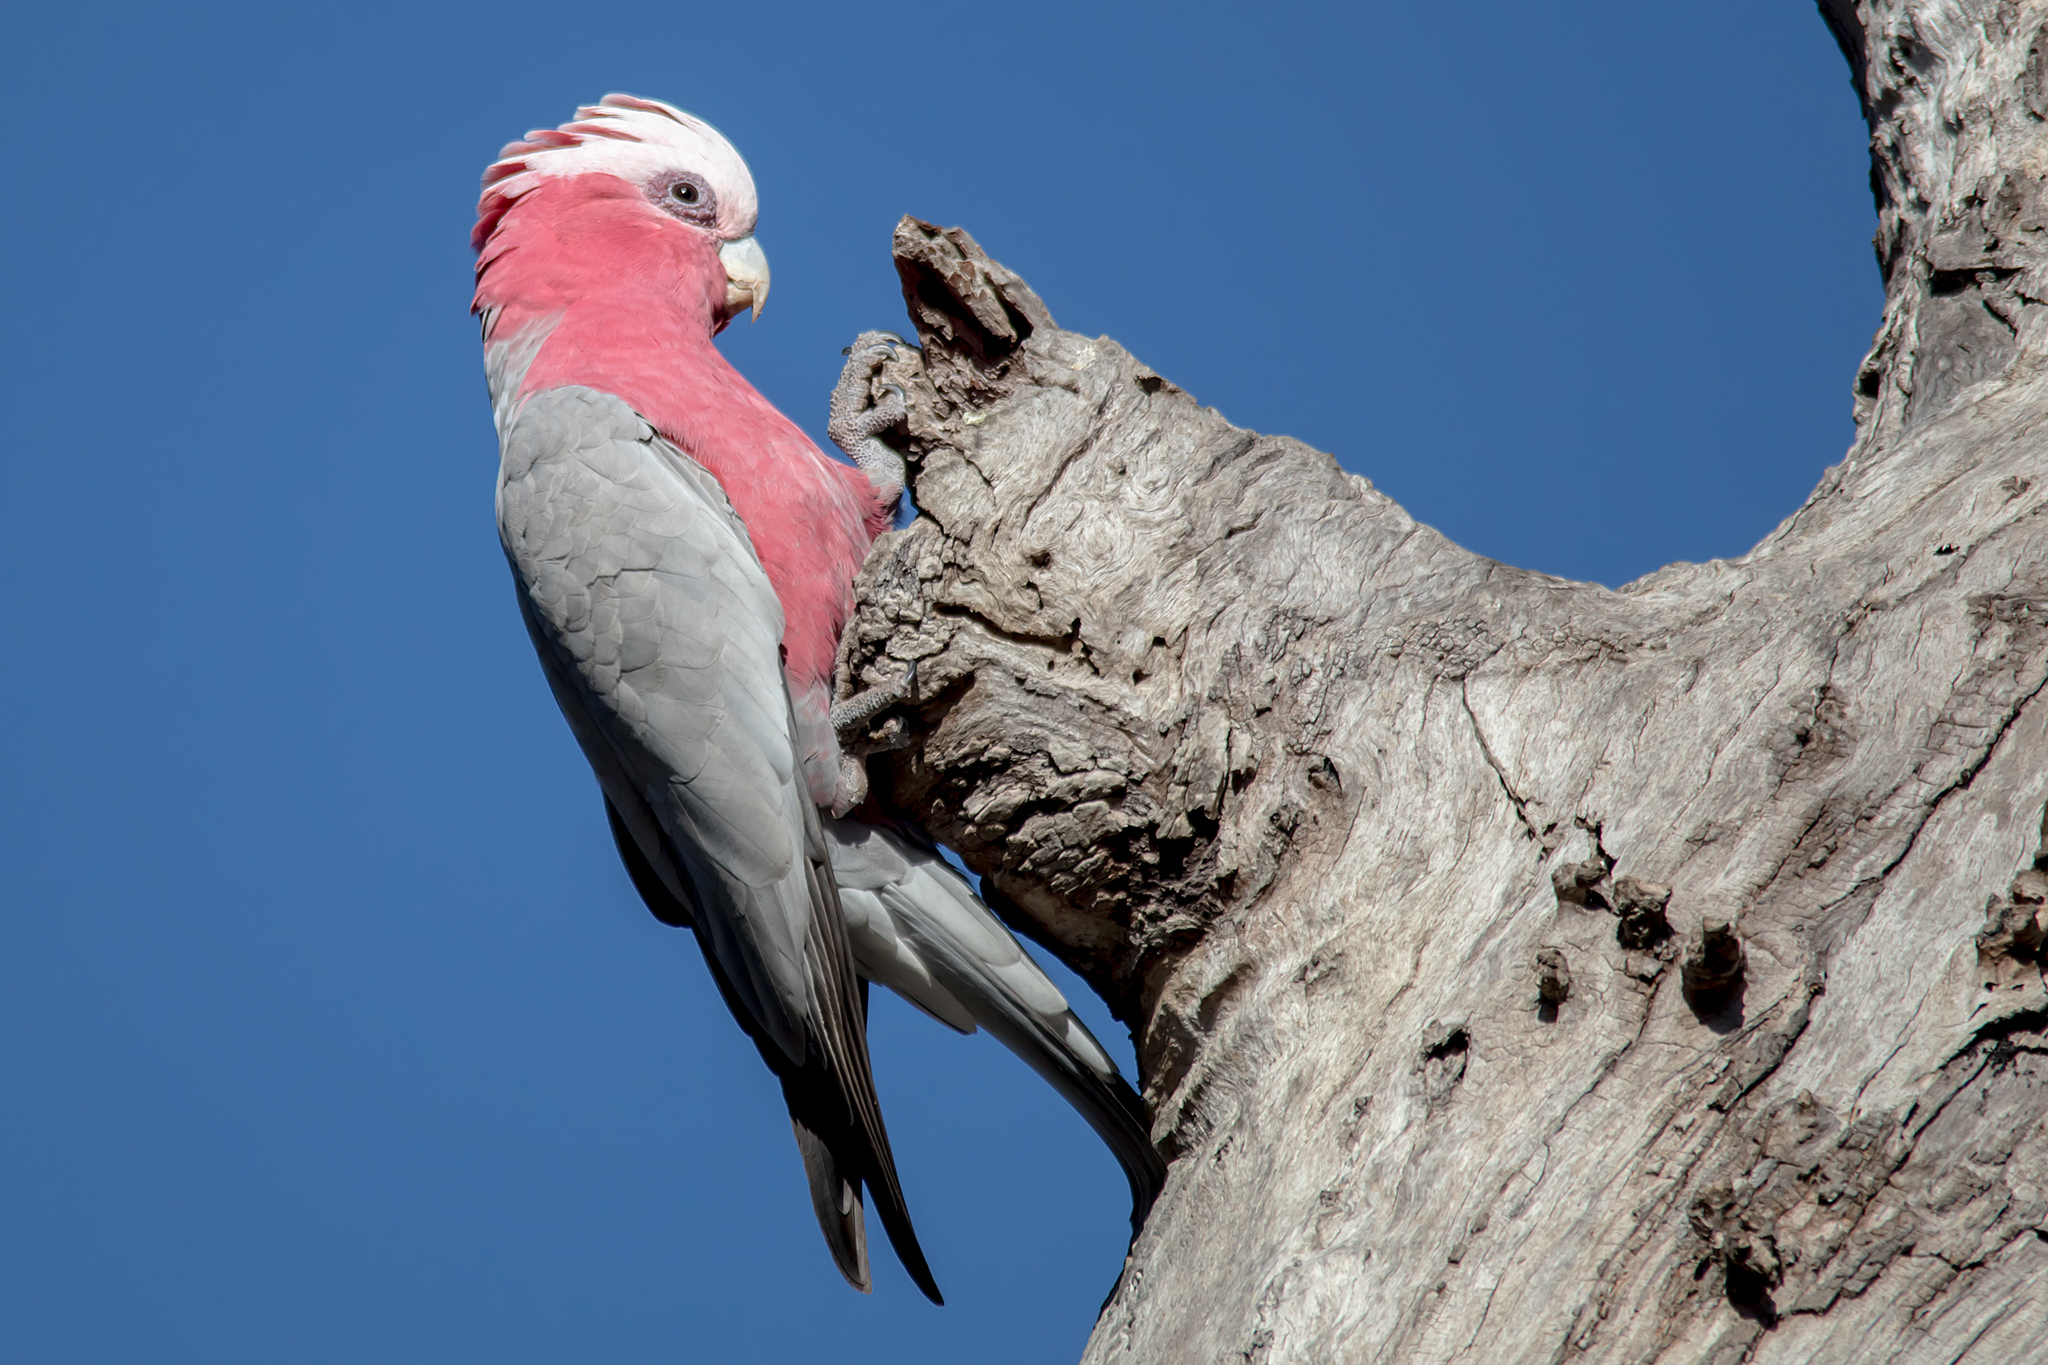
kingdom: Animalia
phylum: Chordata
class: Aves
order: Psittaciformes
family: Psittacidae
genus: Eolophus
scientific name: Eolophus roseicapilla
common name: Galah
